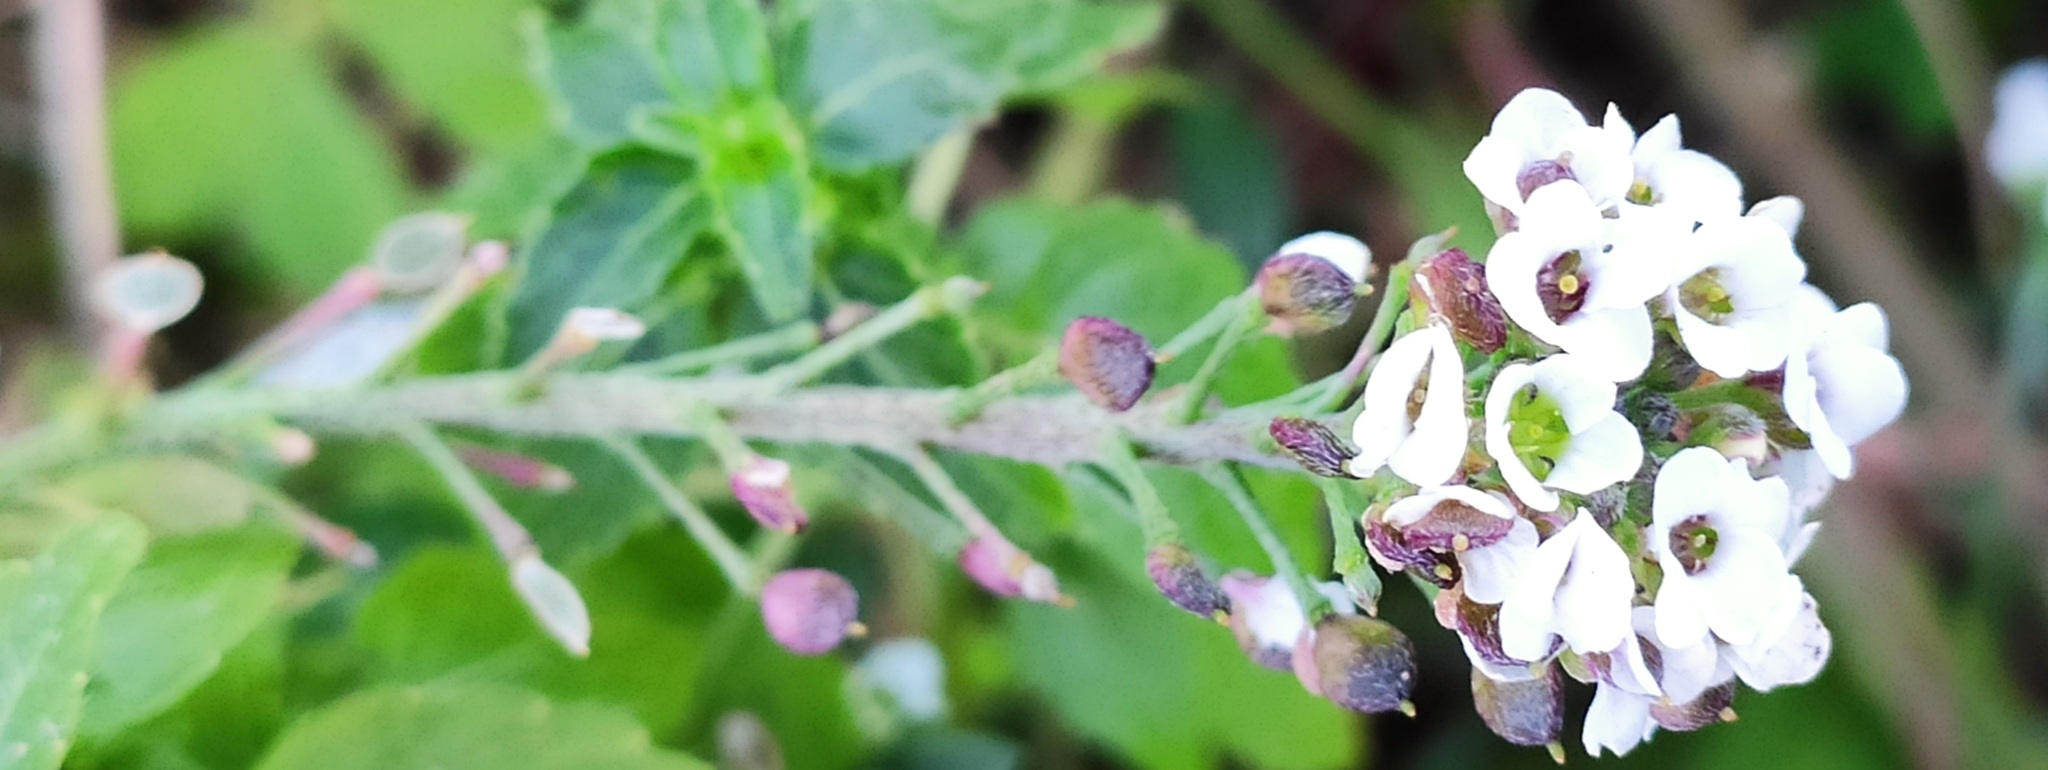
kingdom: Plantae
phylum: Tracheophyta
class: Magnoliopsida
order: Brassicales
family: Brassicaceae
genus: Lobularia
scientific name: Lobularia maritima
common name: Sweet alison
